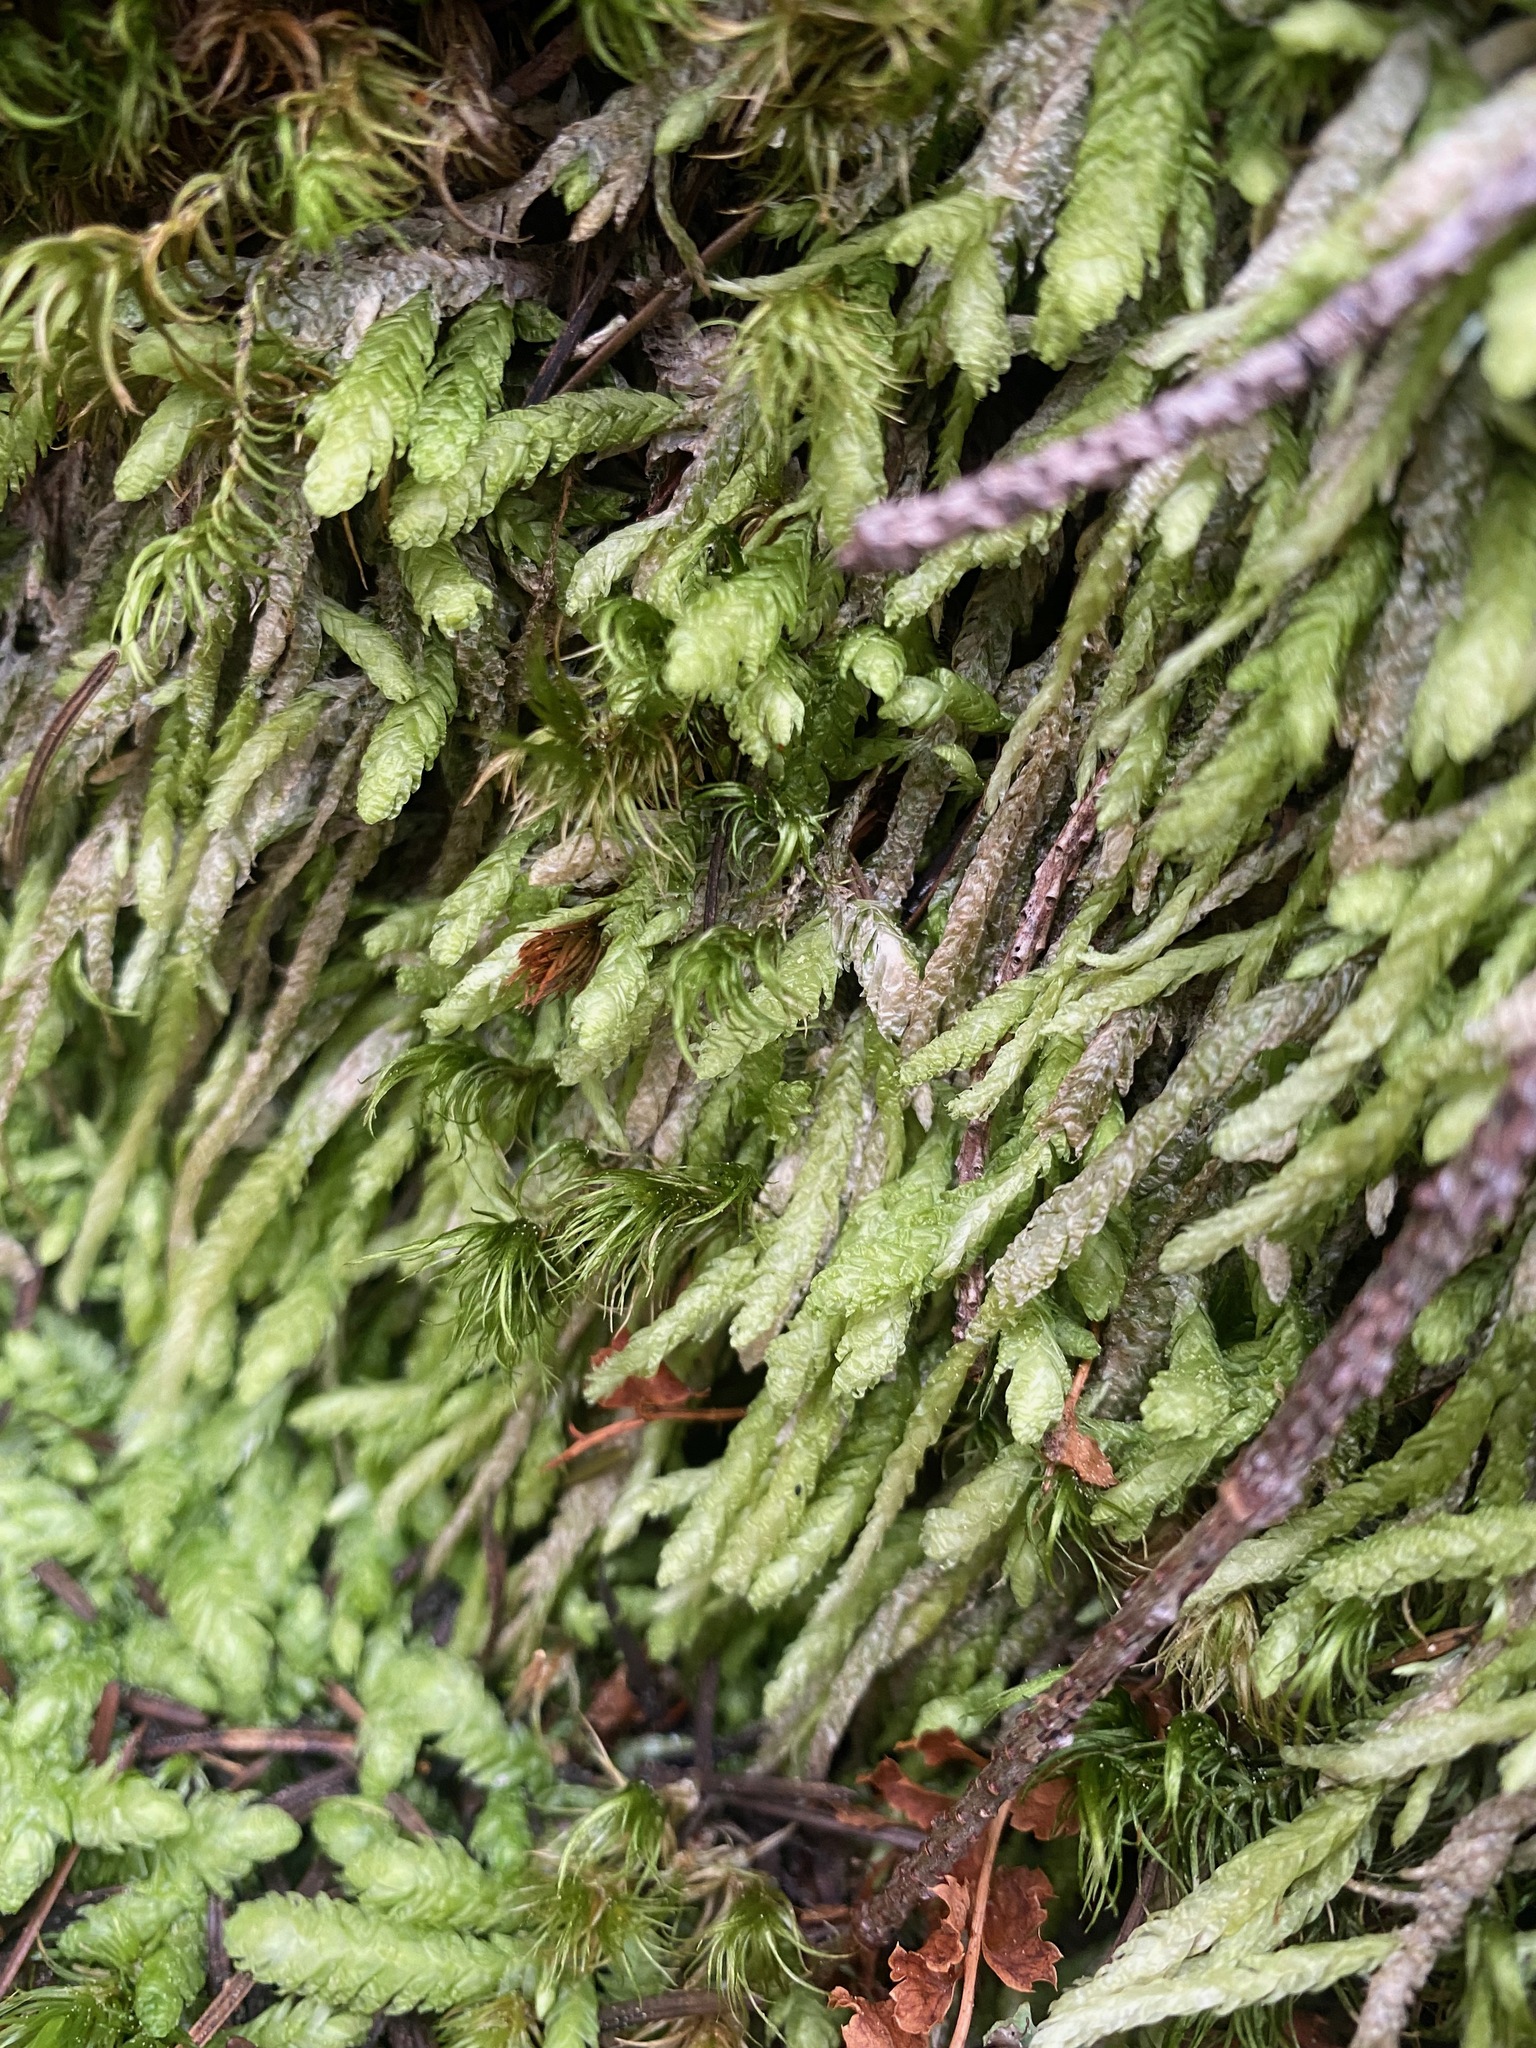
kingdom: Plantae
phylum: Bryophyta
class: Bryopsida
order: Hypnales
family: Plagiotheciaceae
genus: Plagiothecium
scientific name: Plagiothecium undulatum
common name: Waved silk-moss
